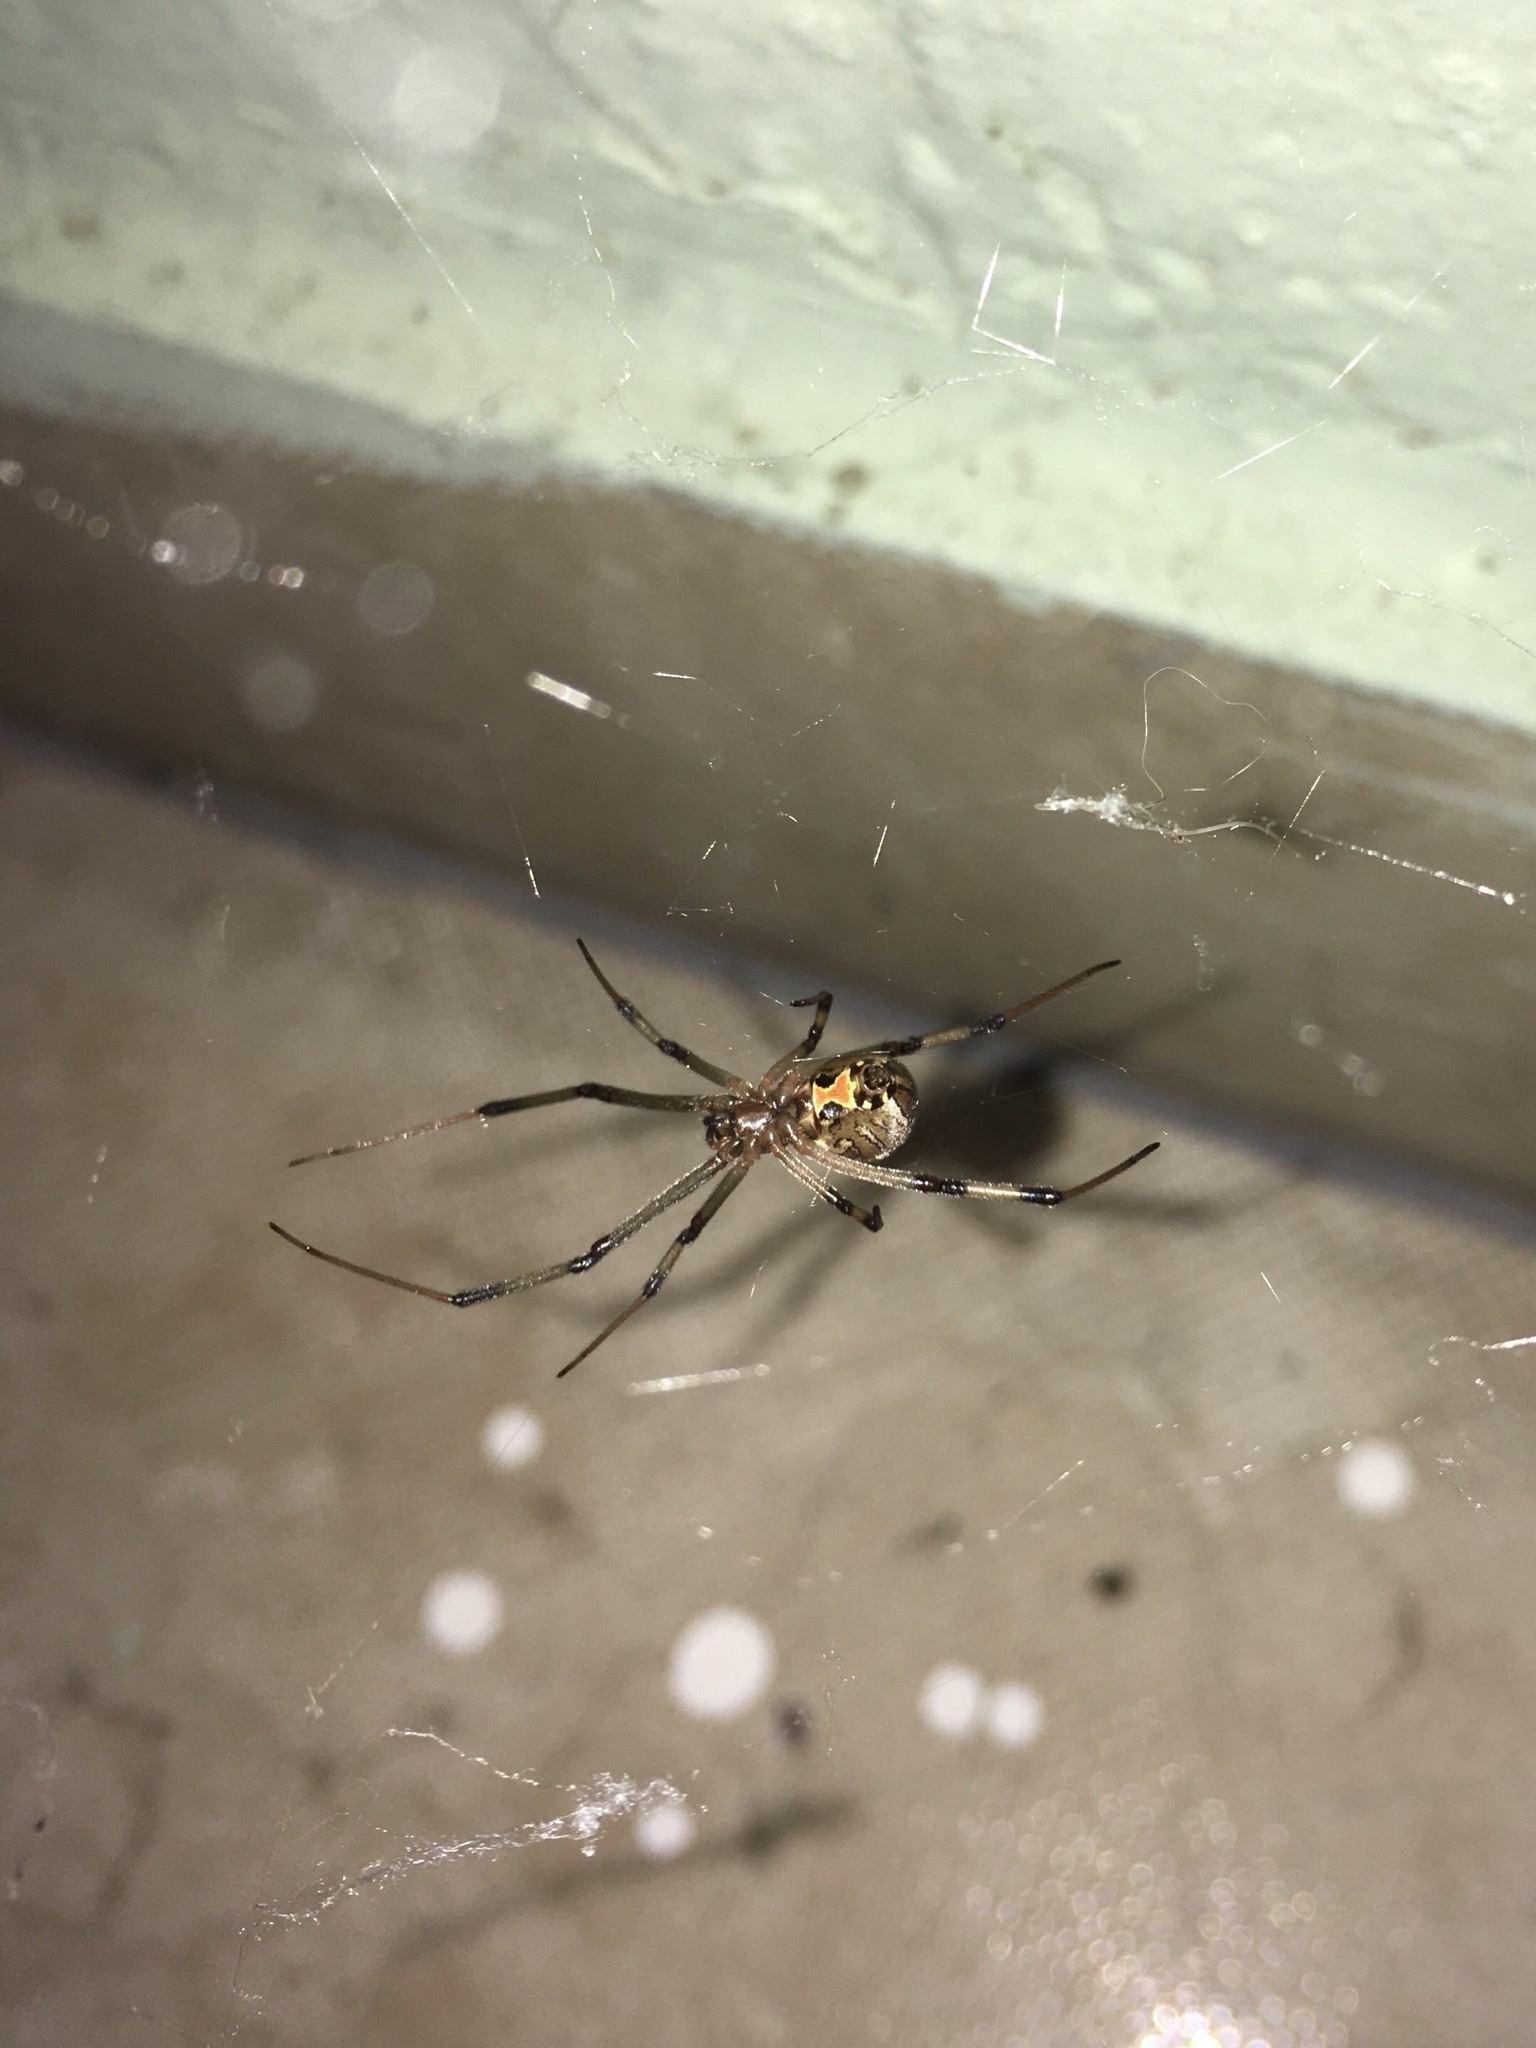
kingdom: Animalia
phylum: Arthropoda
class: Arachnida
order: Araneae
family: Theridiidae
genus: Latrodectus
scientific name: Latrodectus geometricus
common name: Brown widow spider
